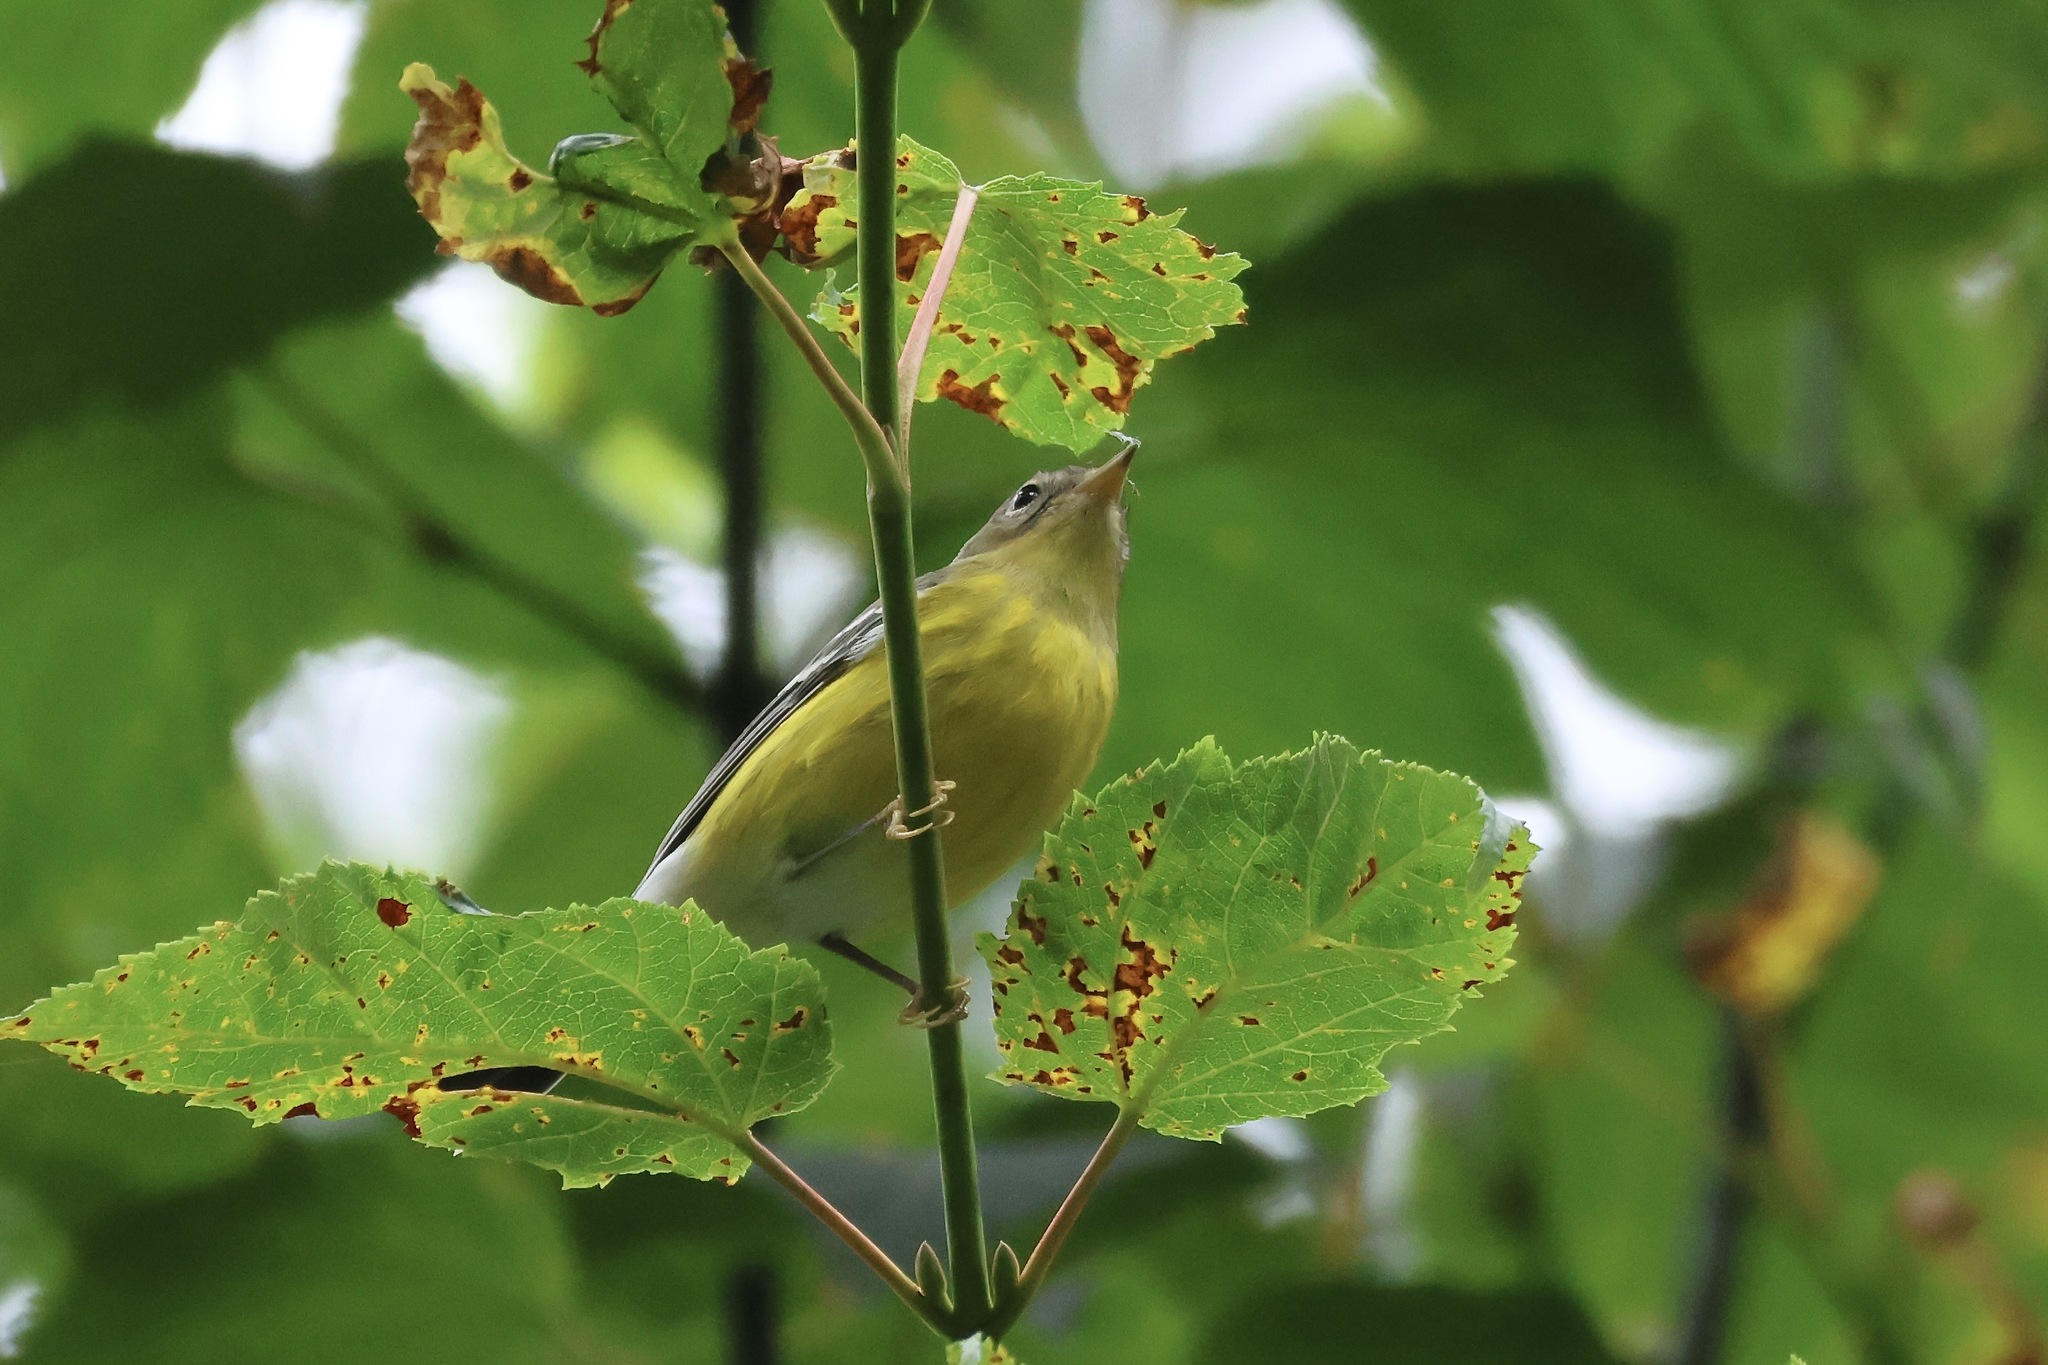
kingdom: Animalia
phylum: Chordata
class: Aves
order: Passeriformes
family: Parulidae
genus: Setophaga
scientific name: Setophaga magnolia
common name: Magnolia warbler
